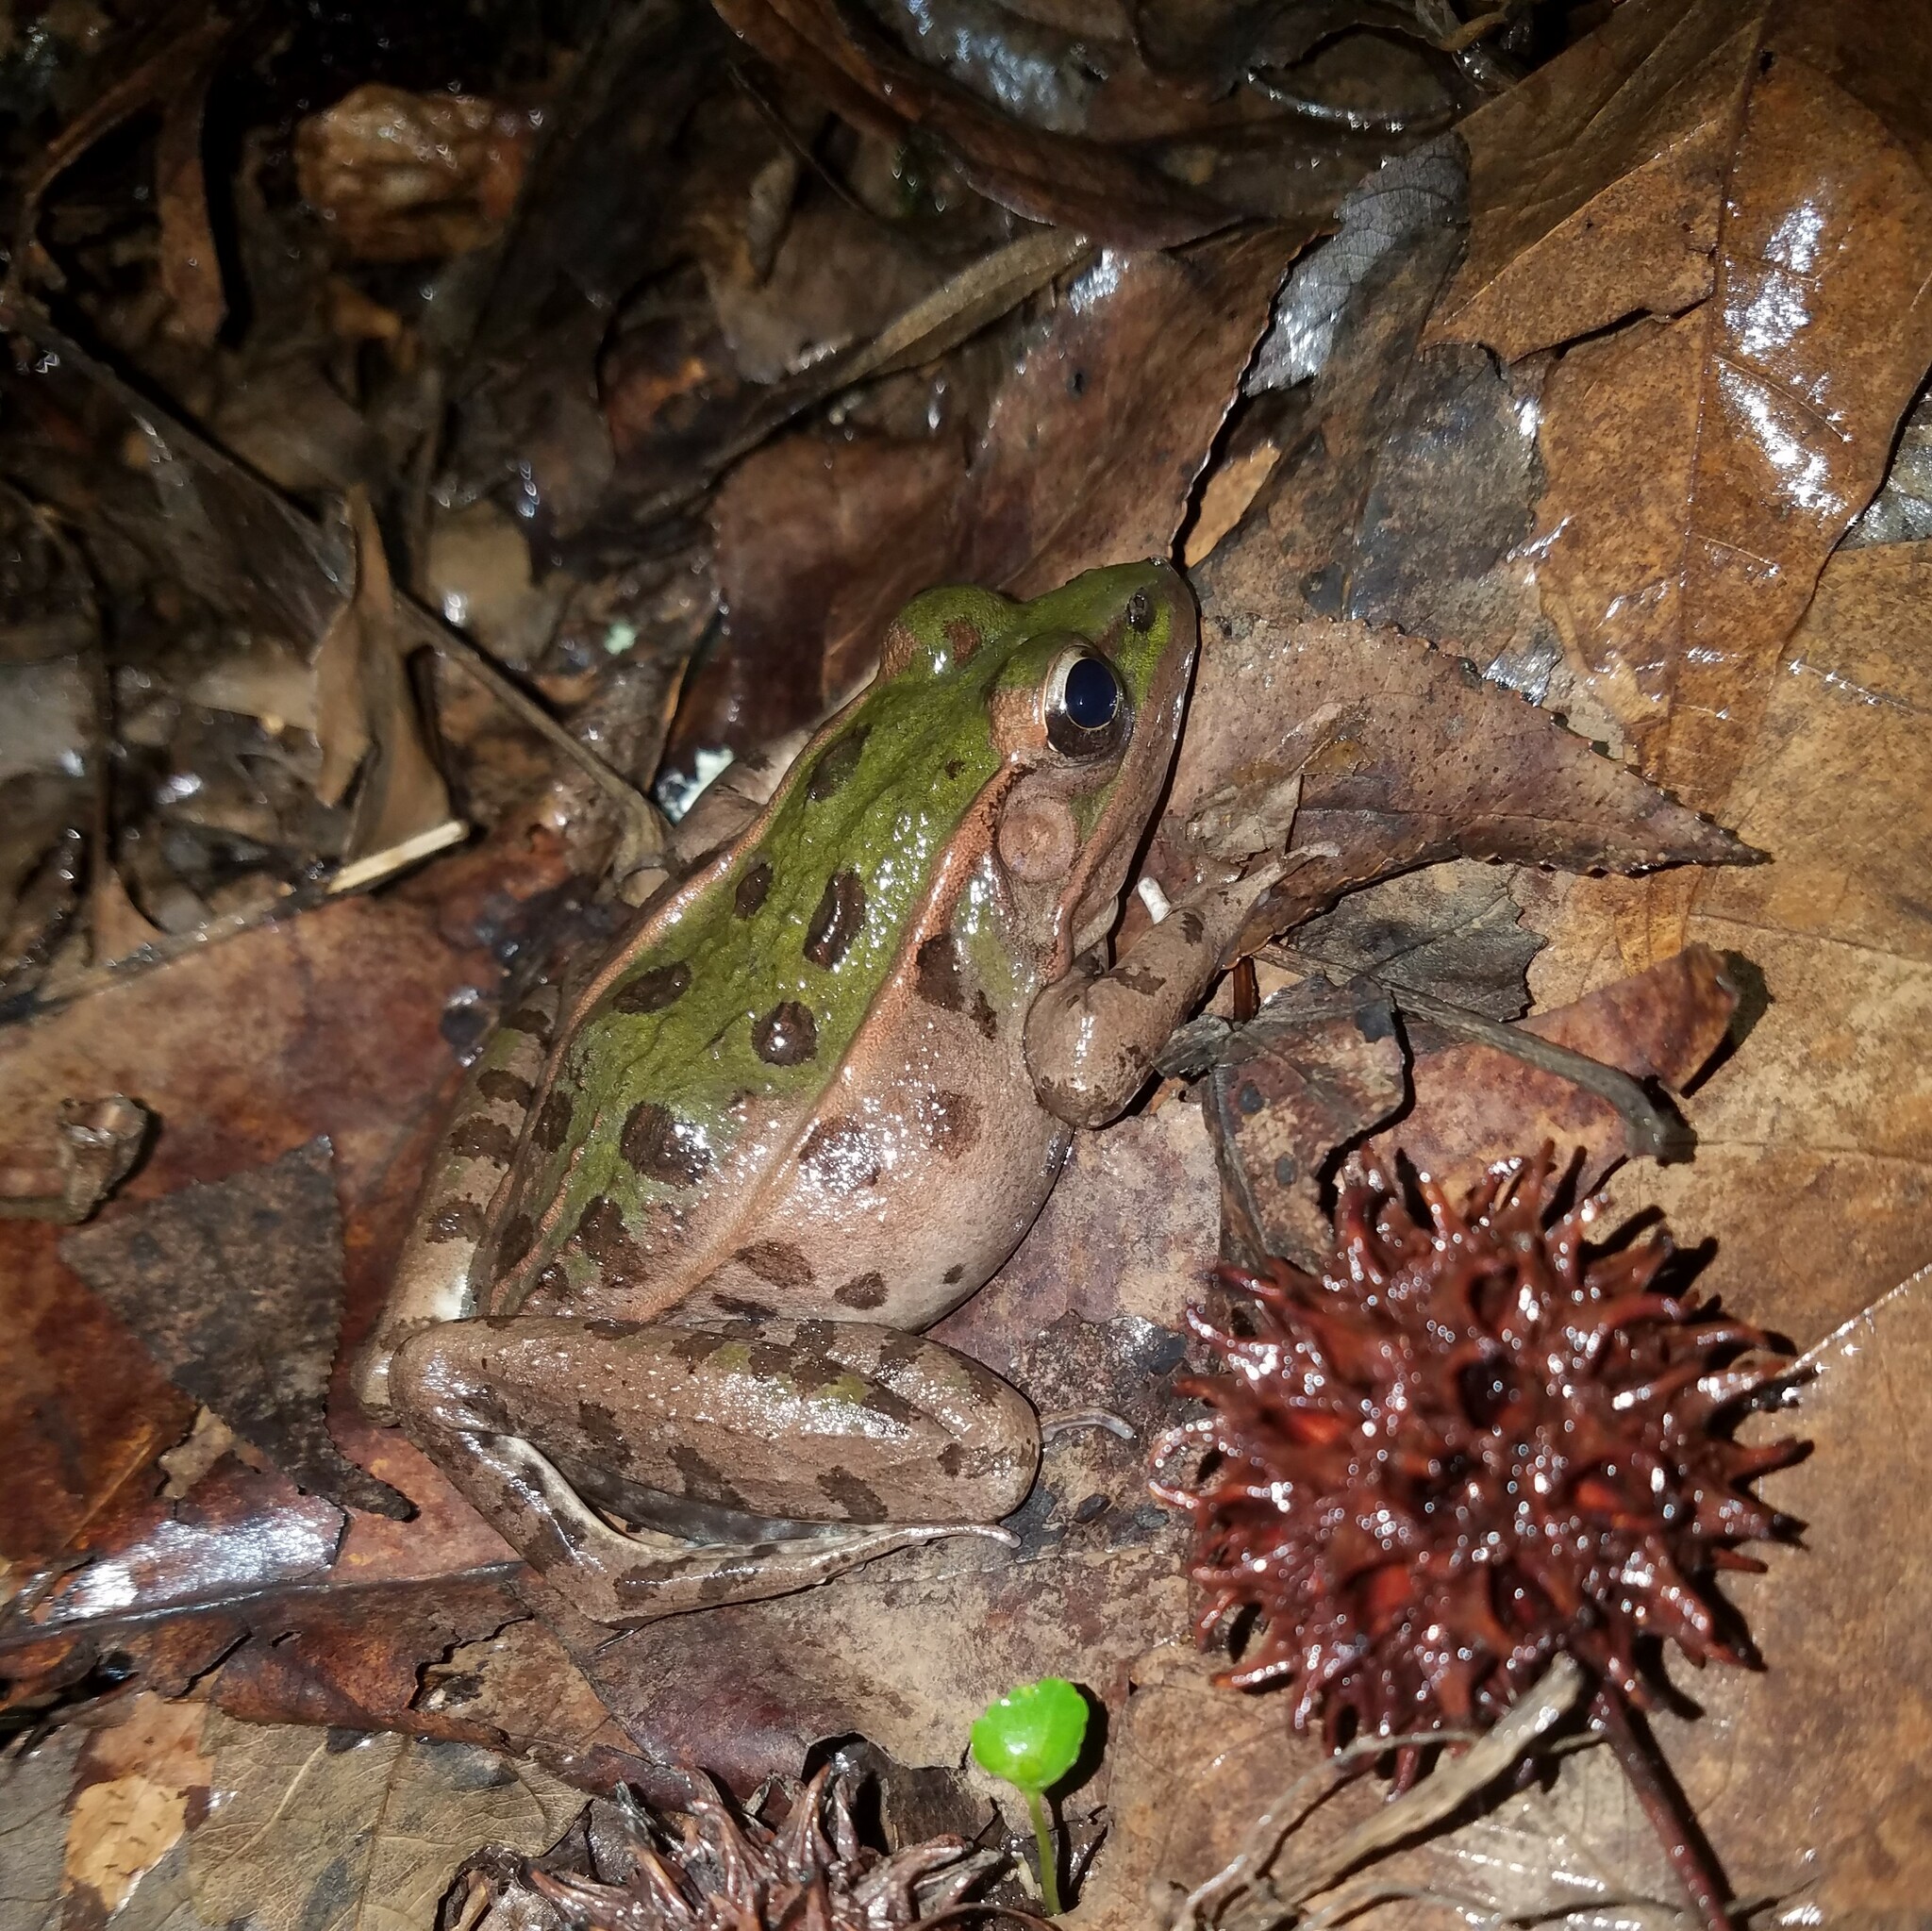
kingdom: Animalia
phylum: Chordata
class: Amphibia
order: Anura
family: Ranidae
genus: Lithobates
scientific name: Lithobates sphenocephalus
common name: Southern leopard frog
